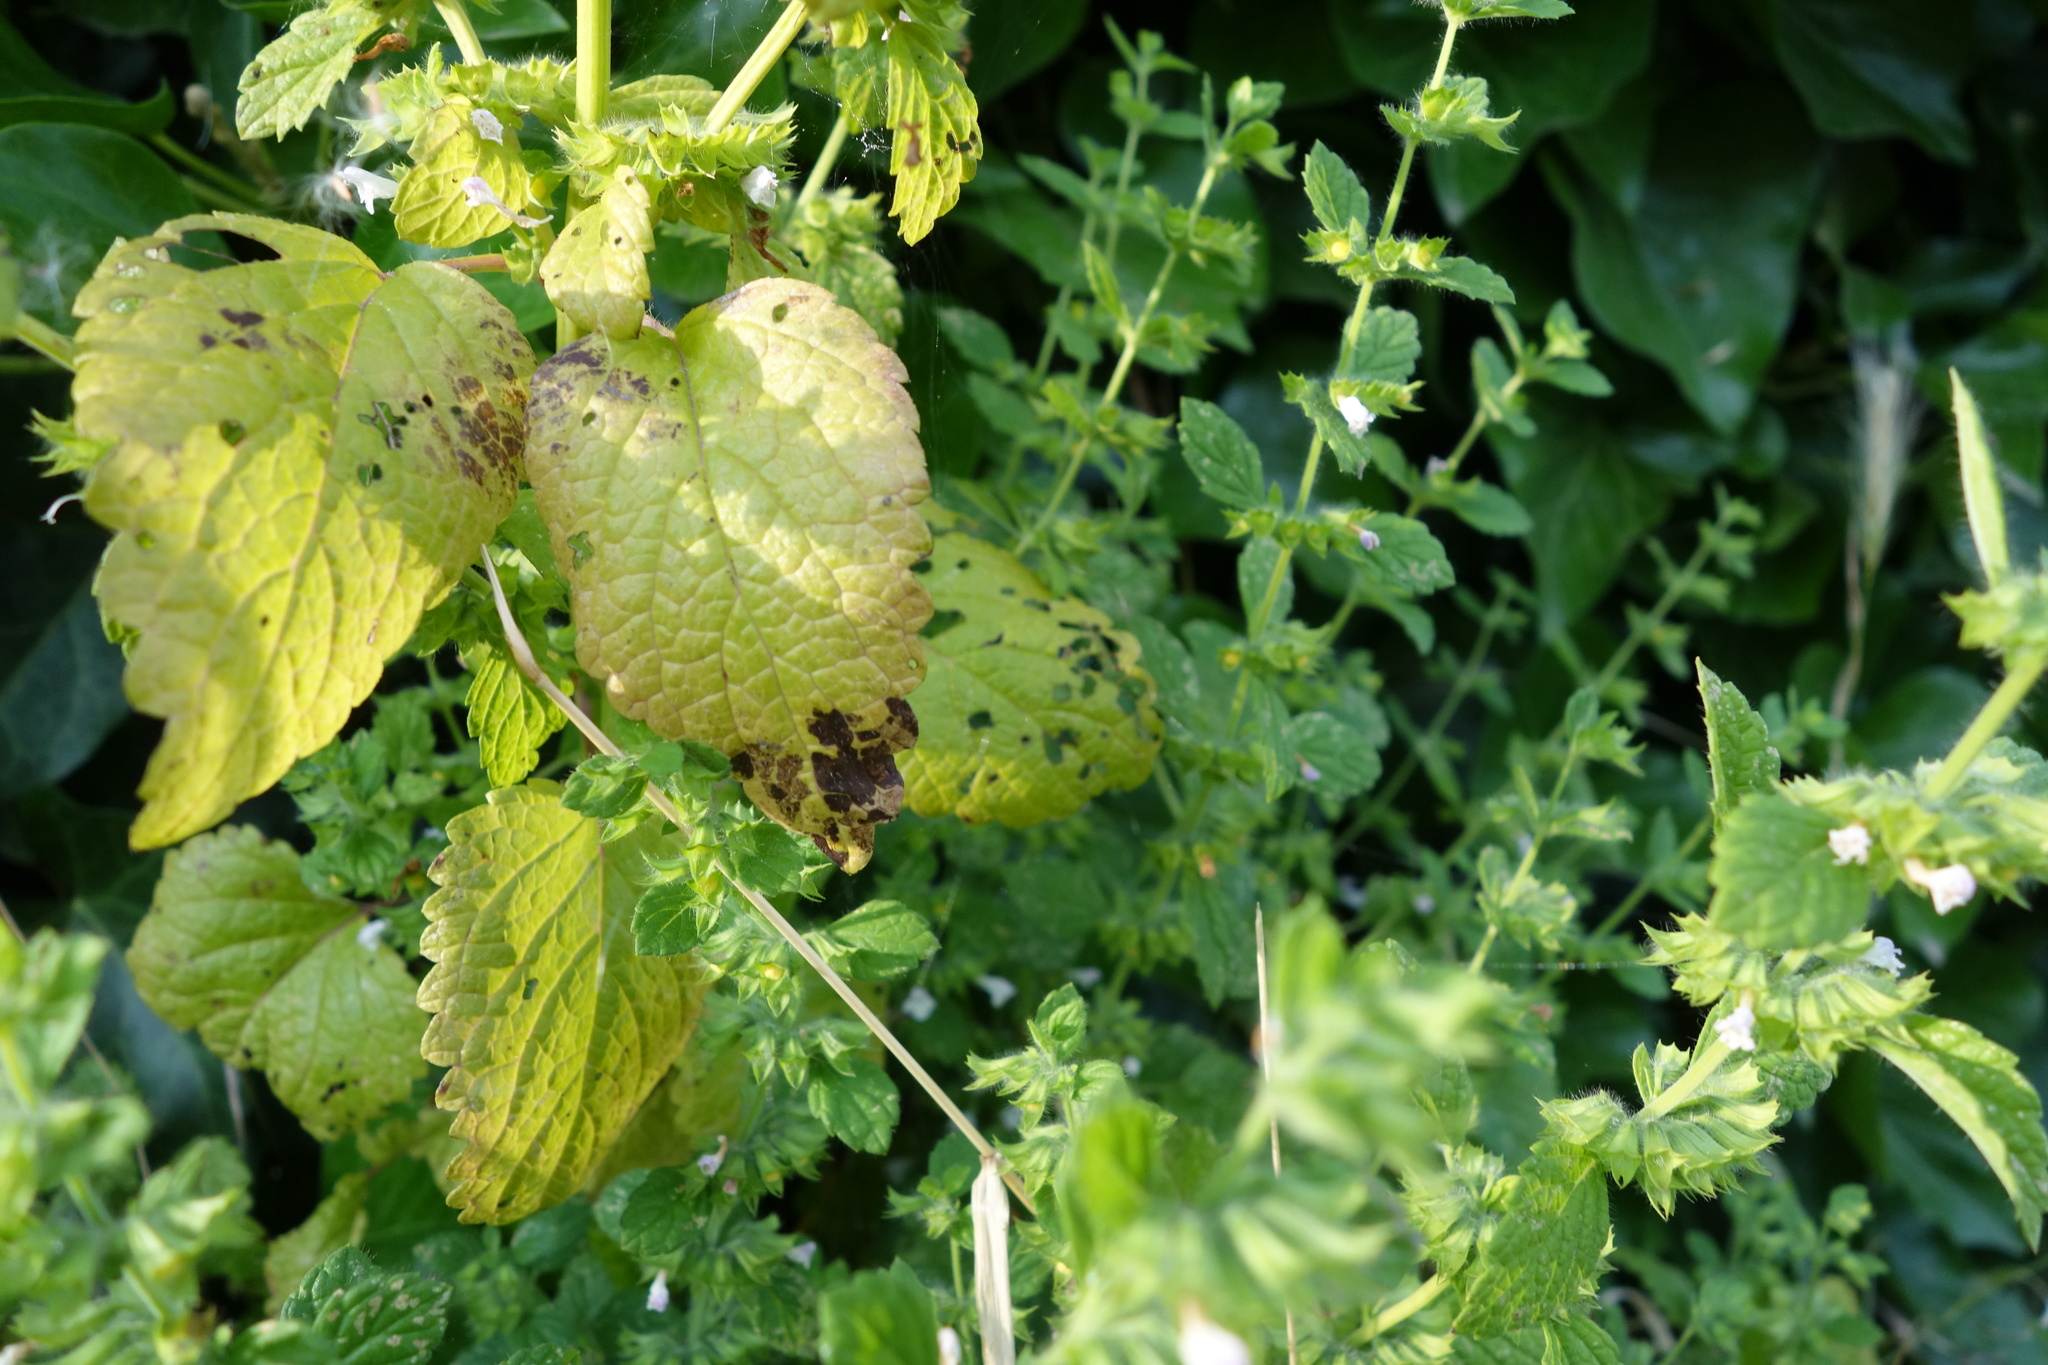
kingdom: Plantae
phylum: Tracheophyta
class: Magnoliopsida
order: Lamiales
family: Lamiaceae
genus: Melissa
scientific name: Melissa officinalis
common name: Balm
